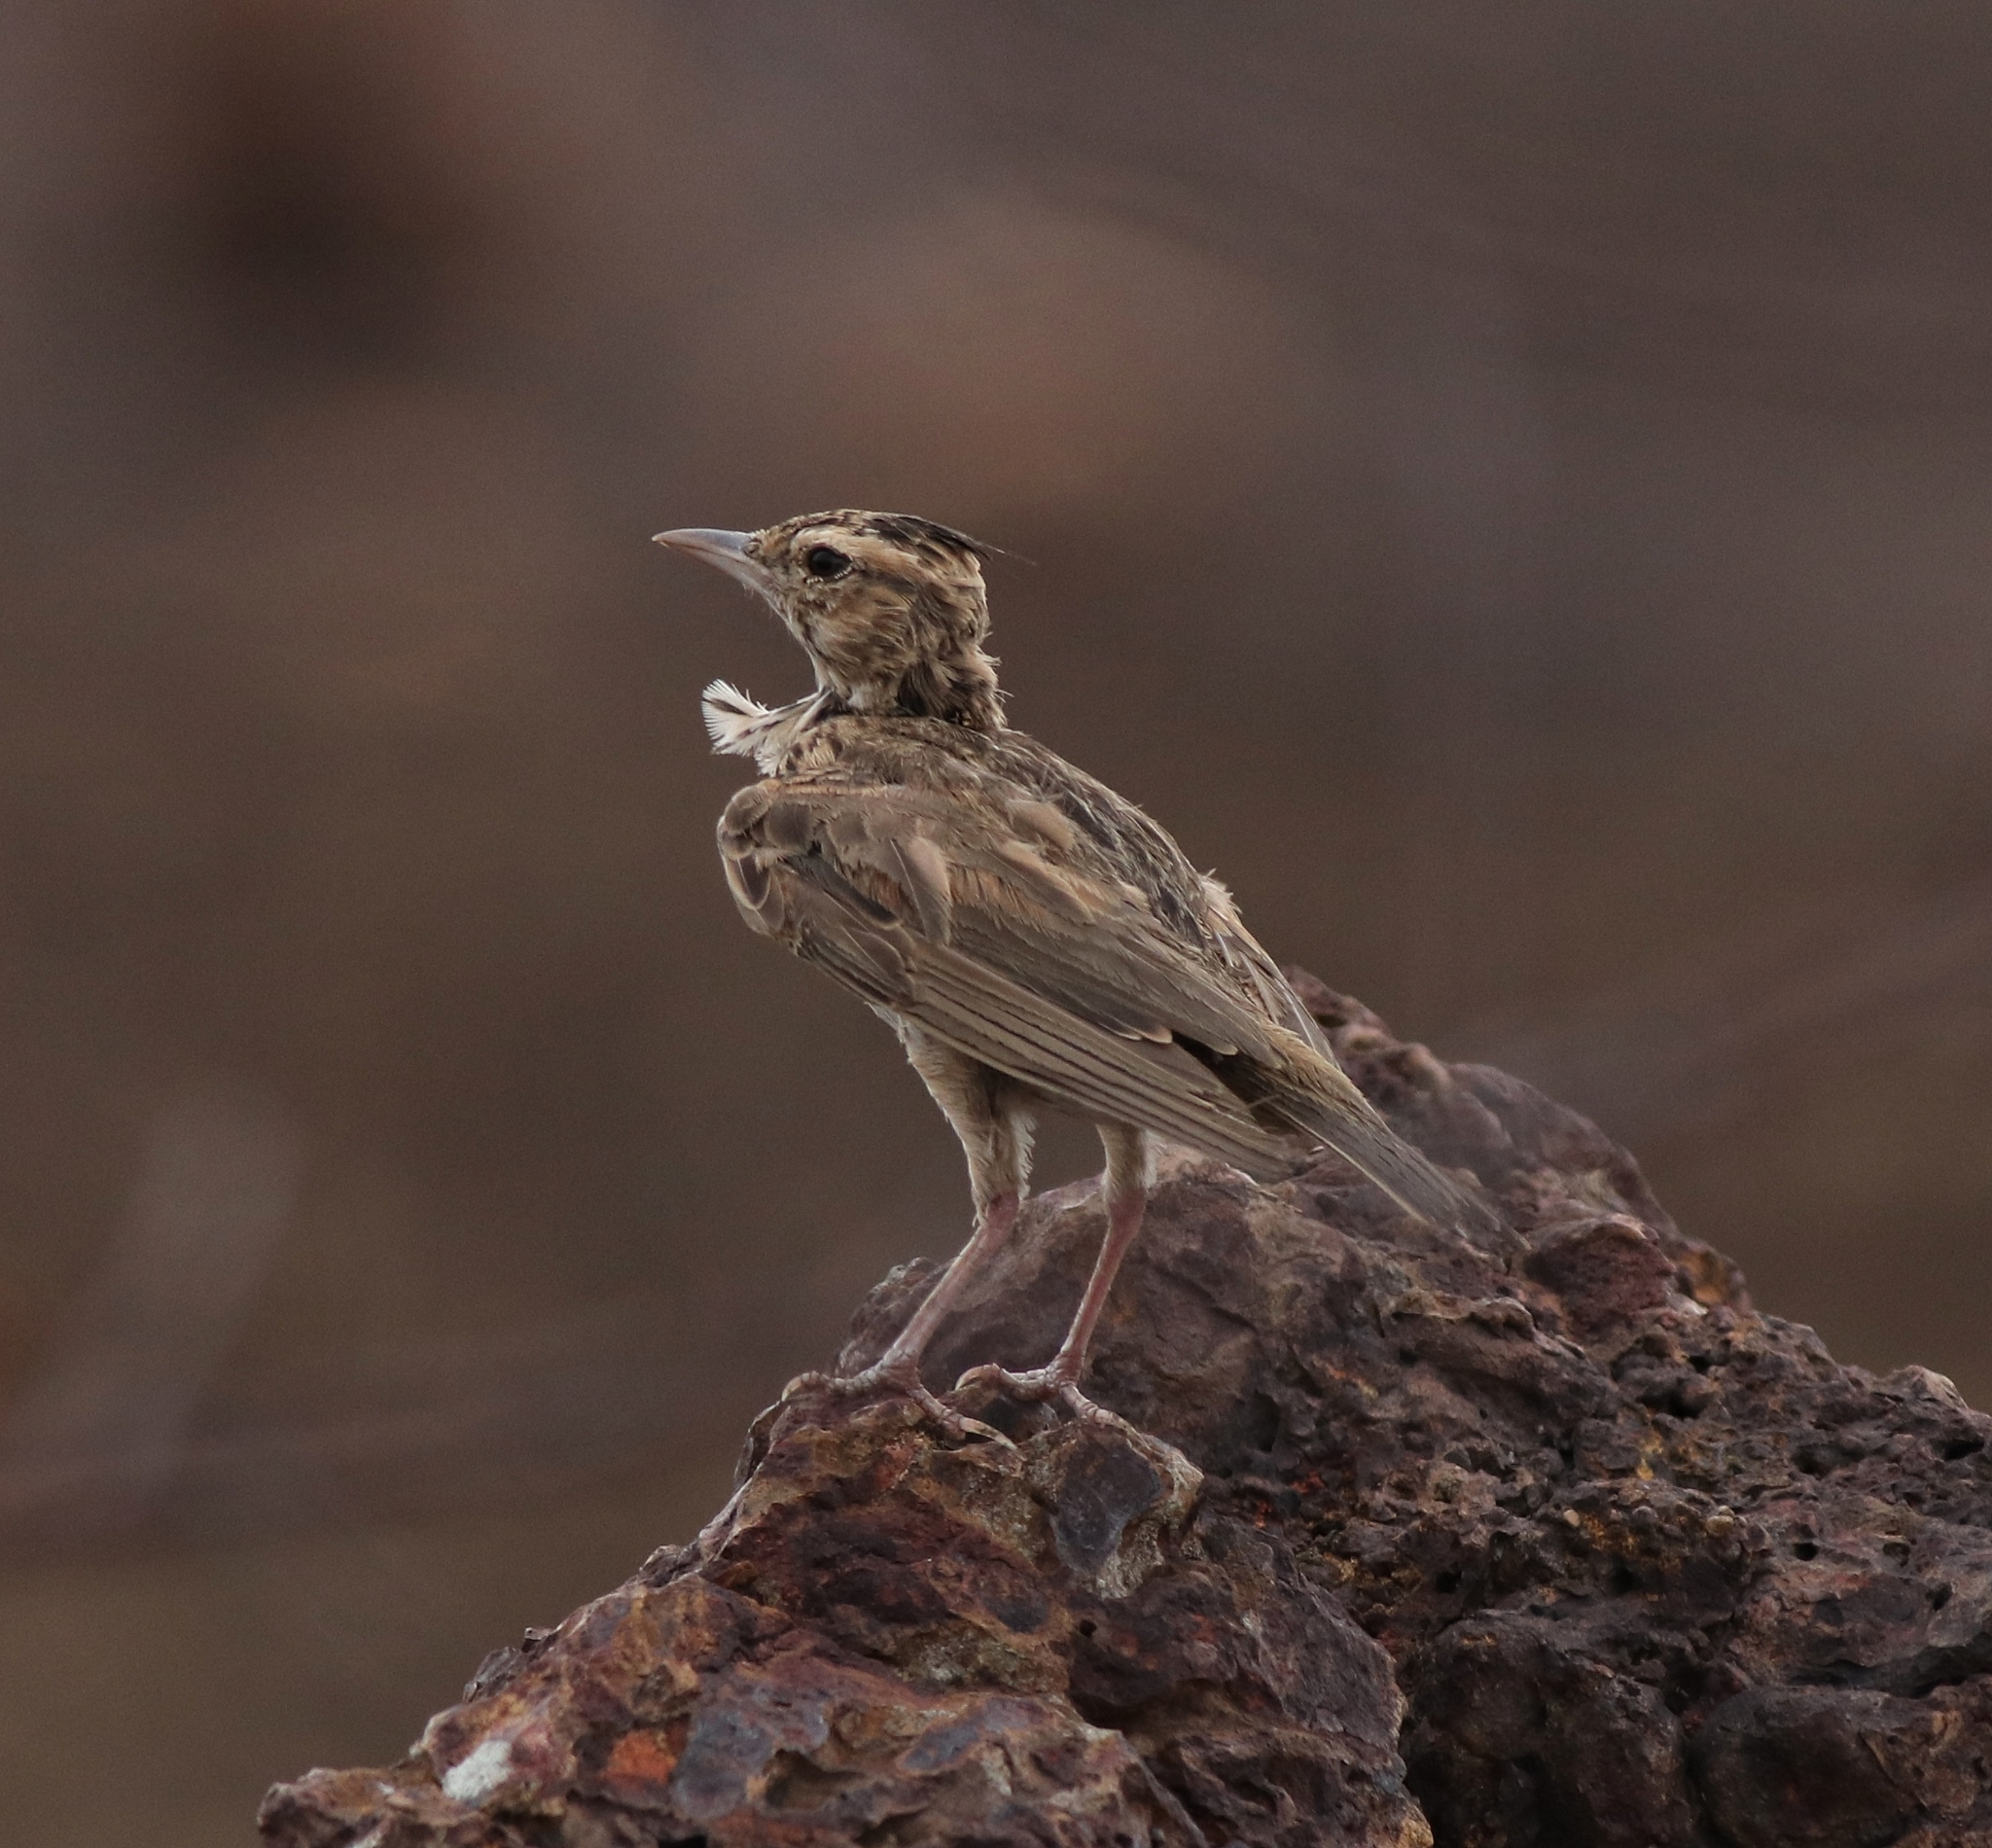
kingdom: Animalia
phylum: Chordata
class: Aves
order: Passeriformes
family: Alaudidae
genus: Galerida
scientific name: Galerida malabarica
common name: Malabar lark
